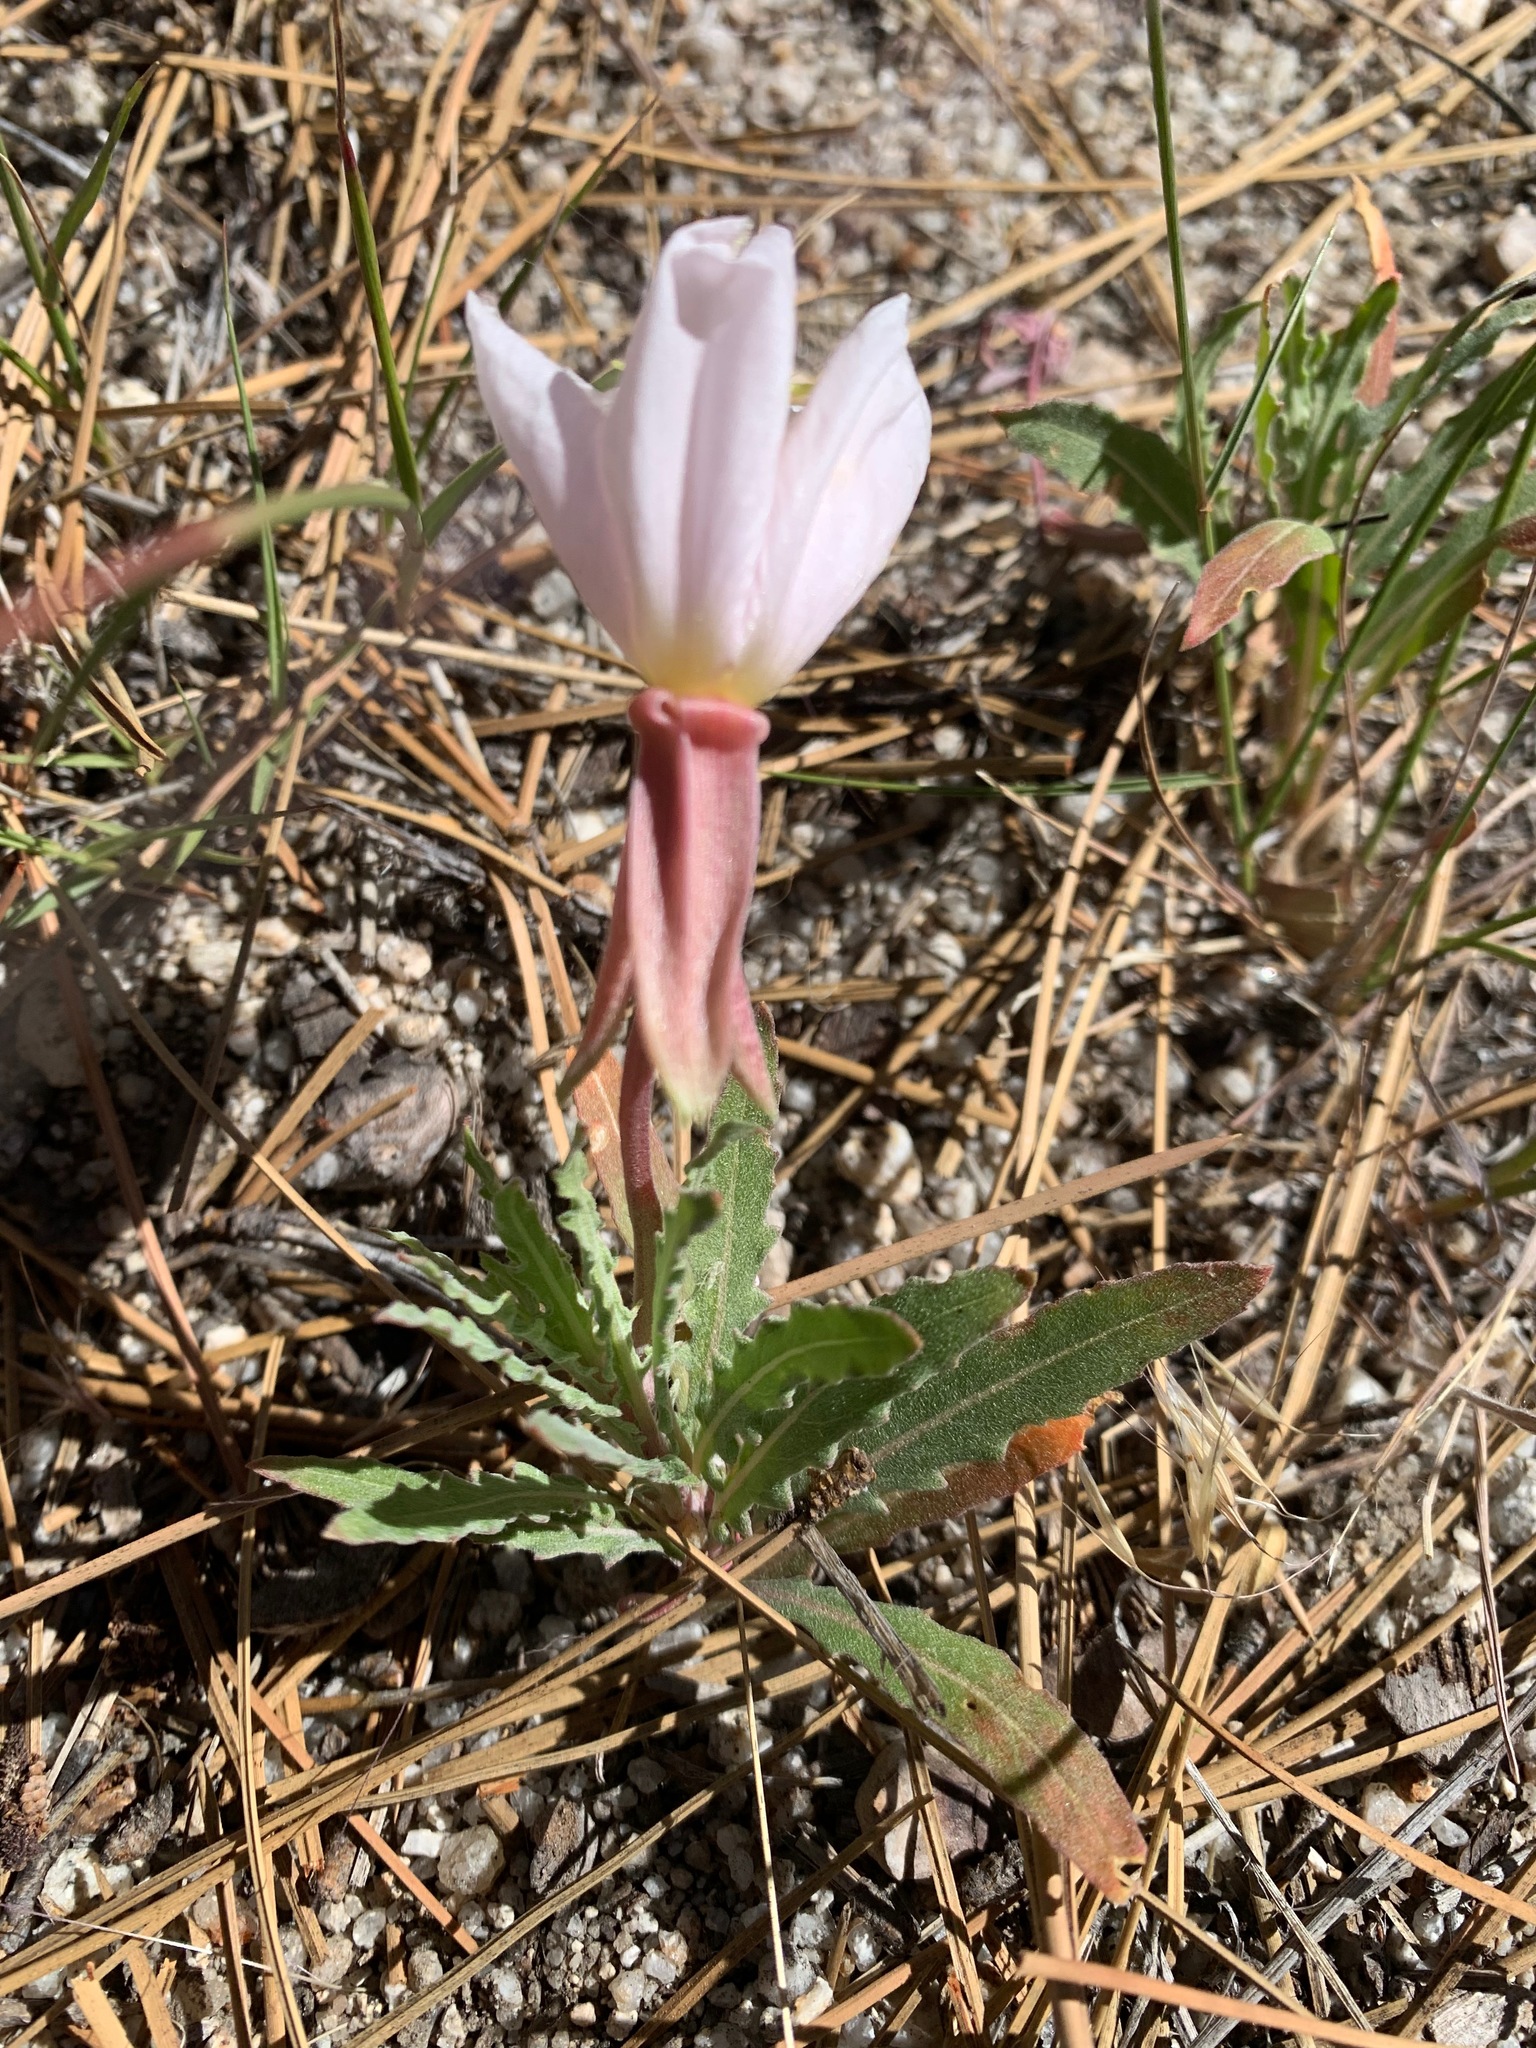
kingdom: Plantae
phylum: Tracheophyta
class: Magnoliopsida
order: Myrtales
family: Onagraceae
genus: Oenothera
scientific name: Oenothera avita
